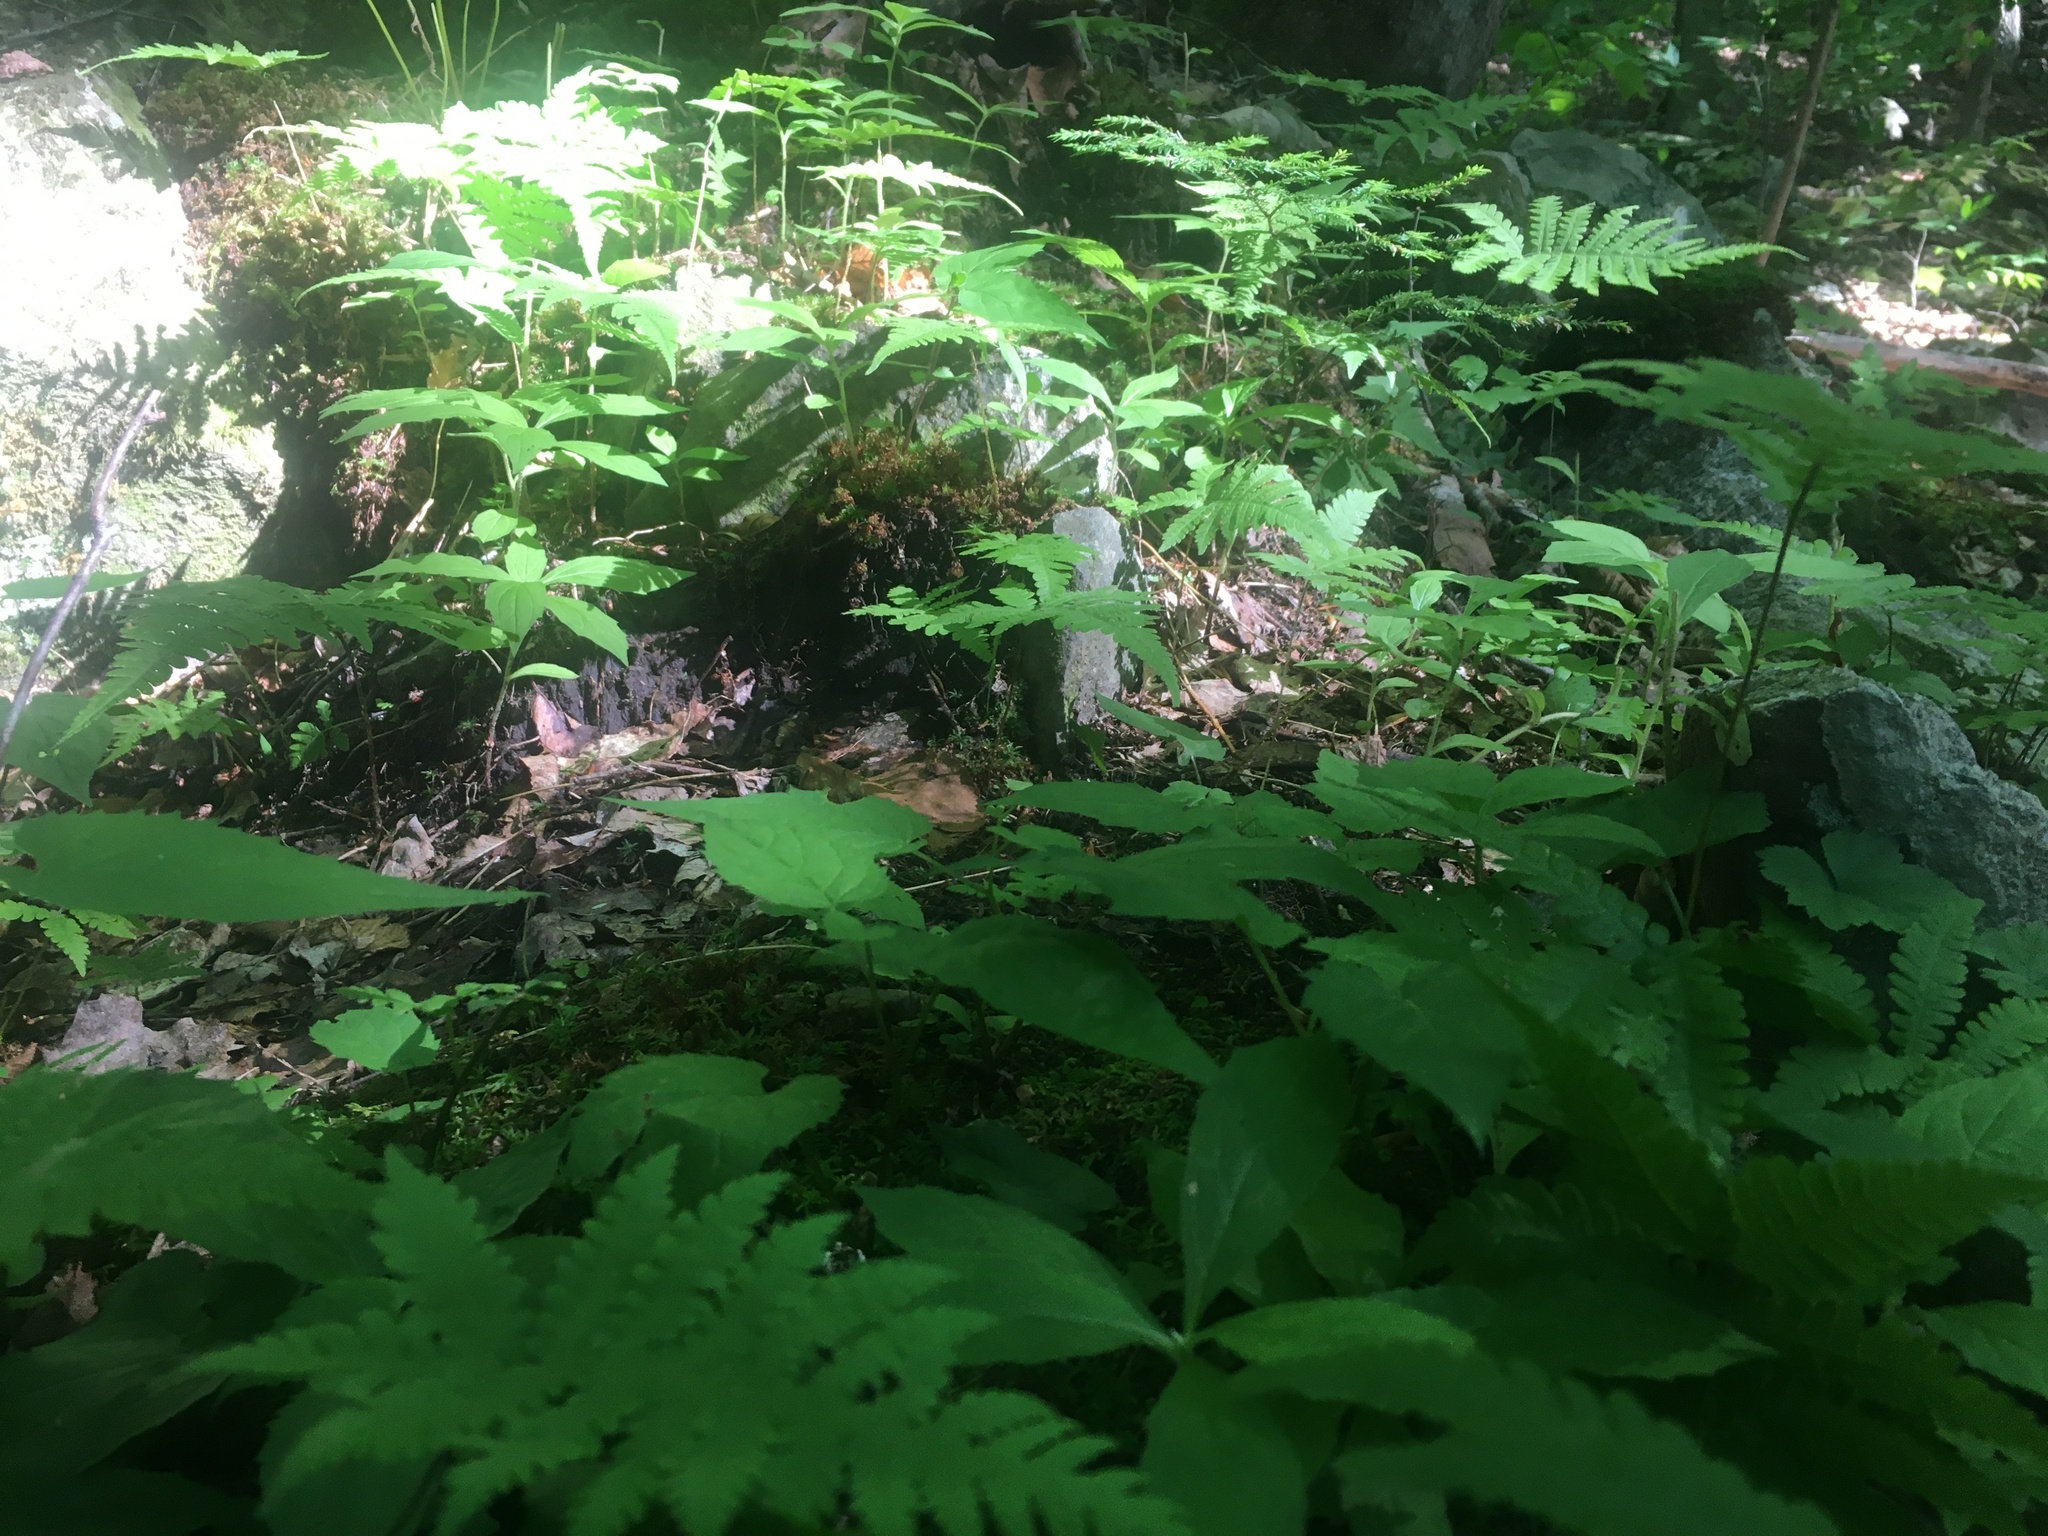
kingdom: Plantae
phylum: Tracheophyta
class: Polypodiopsida
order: Polypodiales
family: Thelypteridaceae
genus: Phegopteris
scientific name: Phegopteris connectilis
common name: Beech fern
